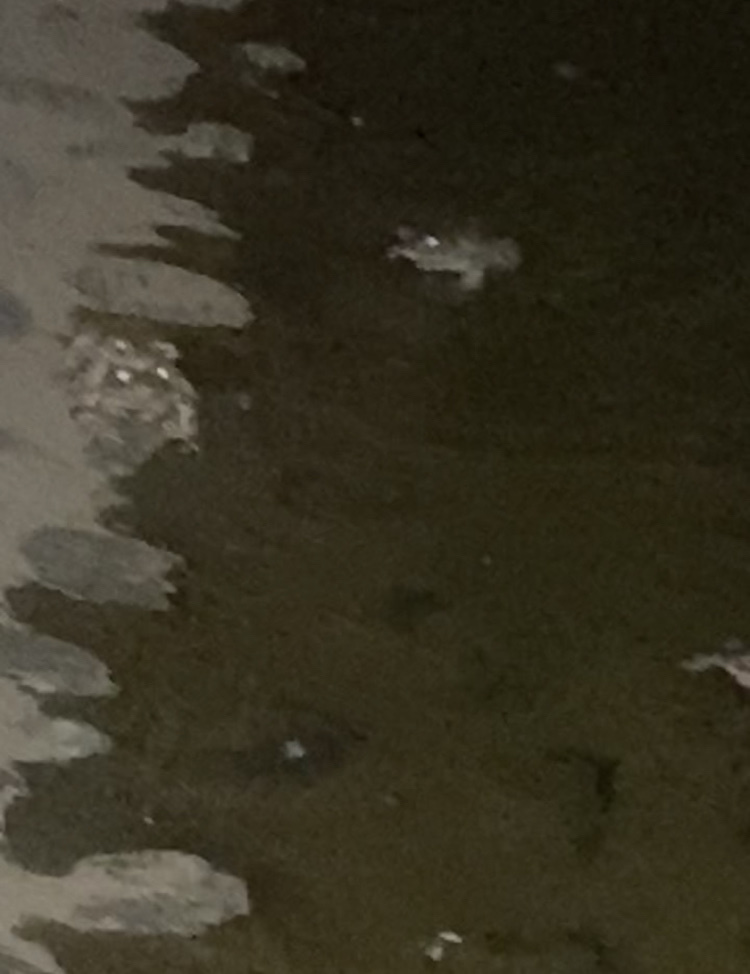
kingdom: Animalia
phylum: Chordata
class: Amphibia
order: Anura
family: Bufonidae
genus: Bufotes
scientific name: Bufotes viridis
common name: European green toad
